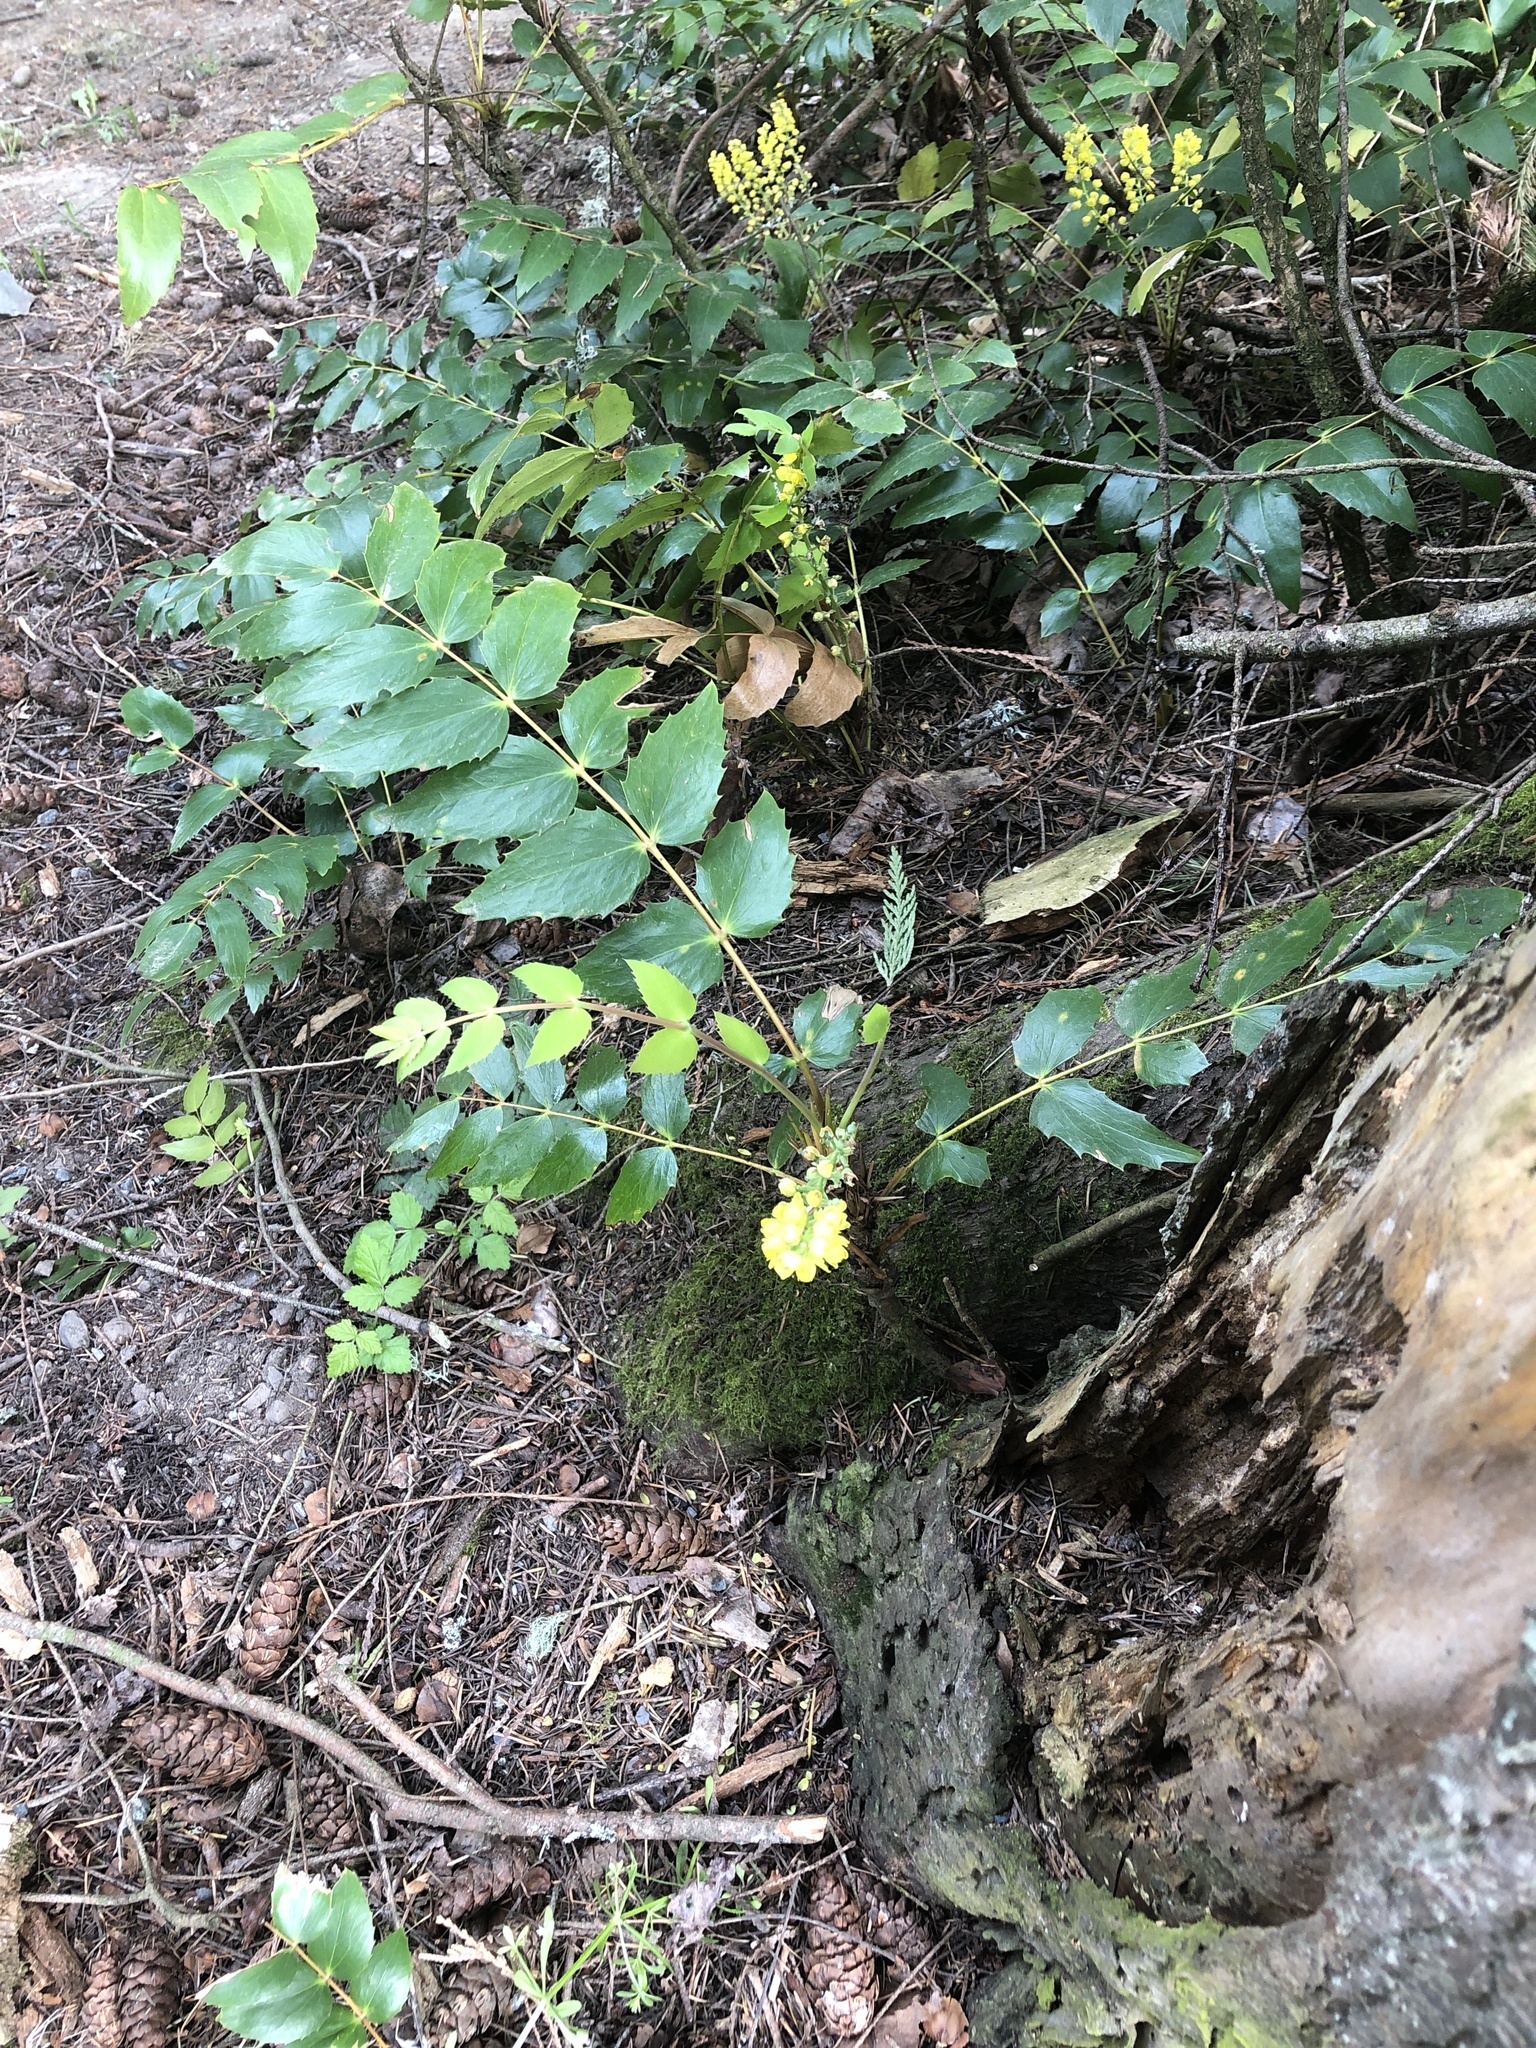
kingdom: Plantae
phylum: Tracheophyta
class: Magnoliopsida
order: Ranunculales
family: Berberidaceae
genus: Mahonia
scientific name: Mahonia nervosa
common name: Cascade oregon-grape
